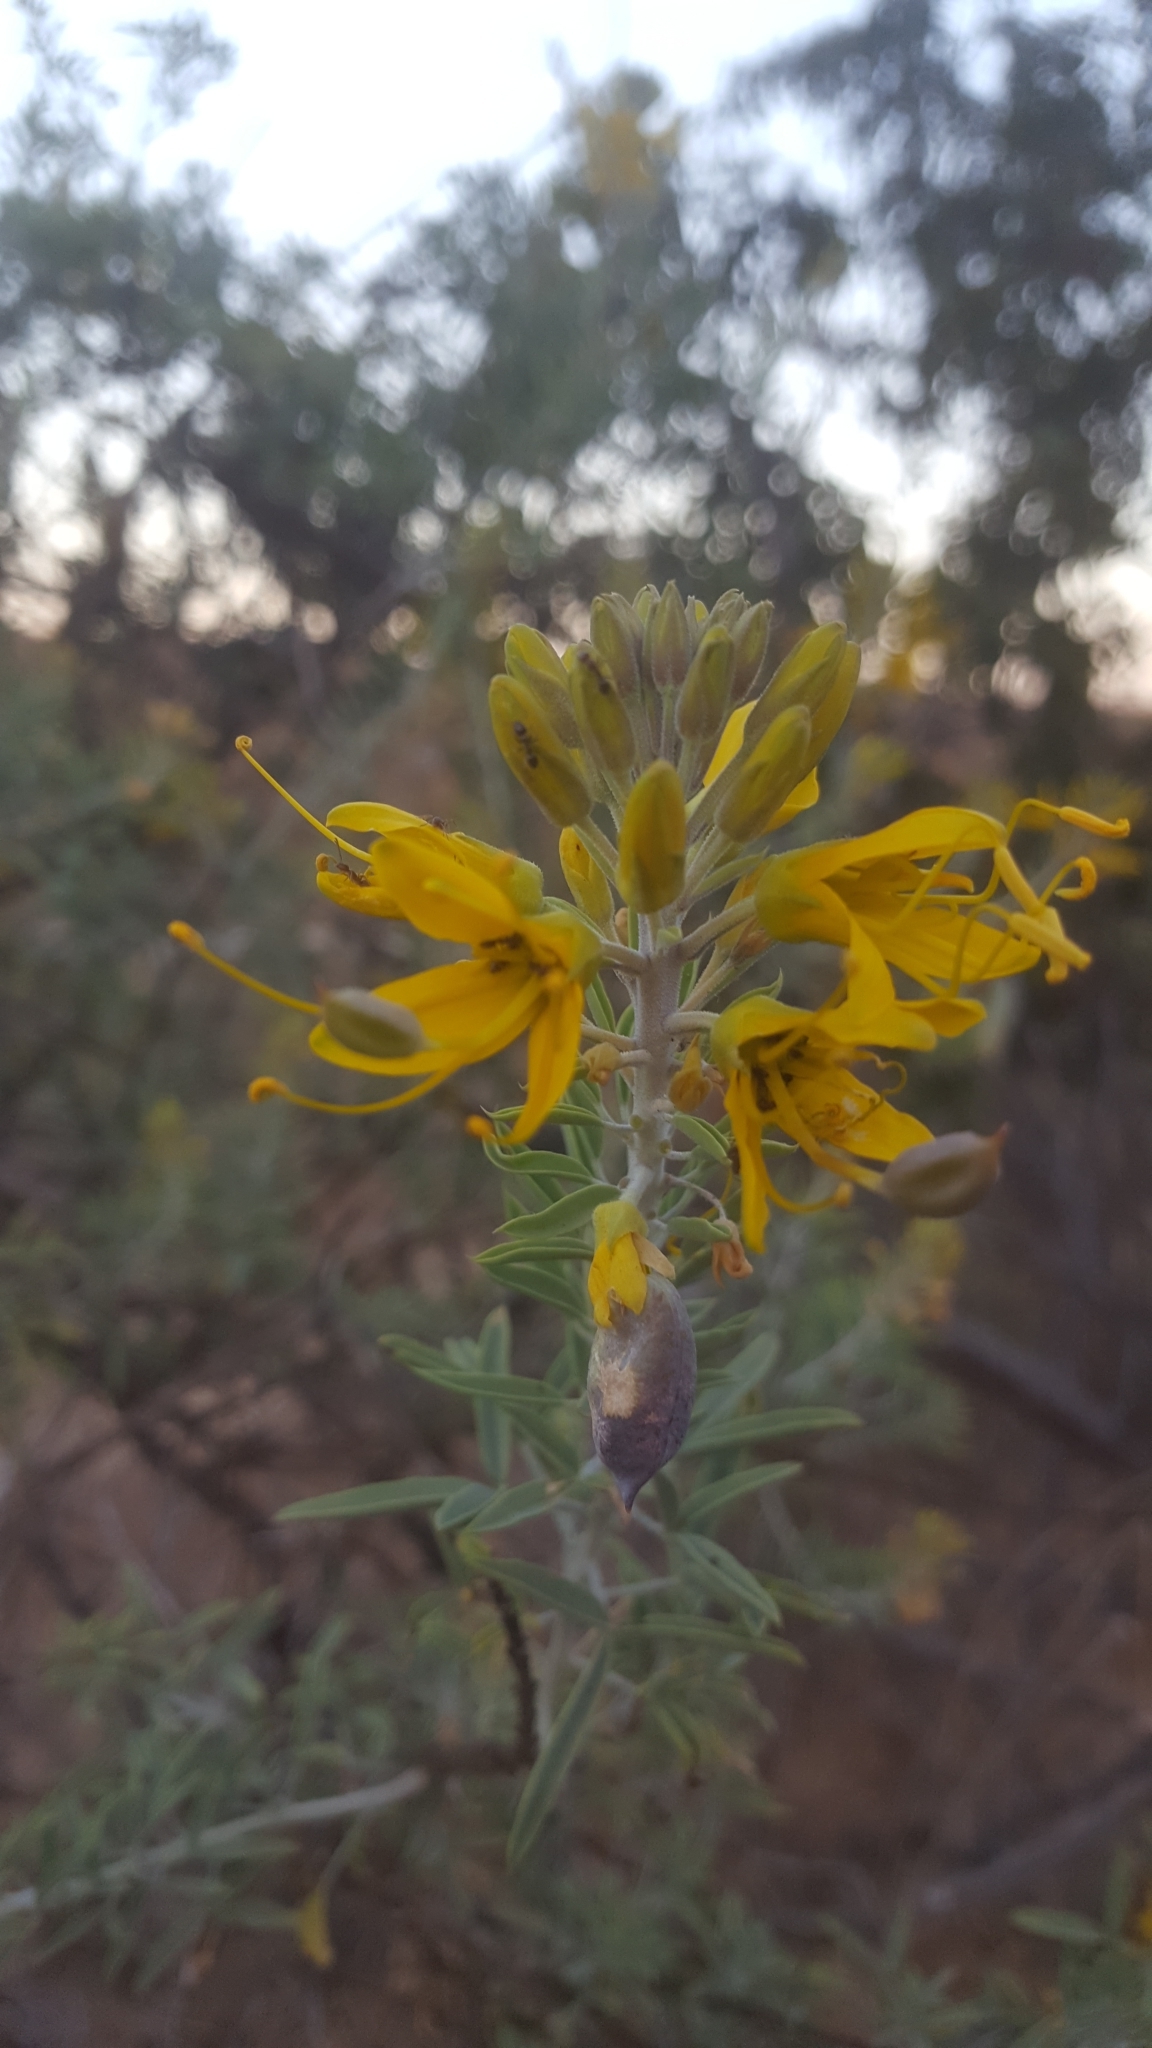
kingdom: Plantae
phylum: Tracheophyta
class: Magnoliopsida
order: Brassicales
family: Cleomaceae
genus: Cleomella
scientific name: Cleomella arborea
